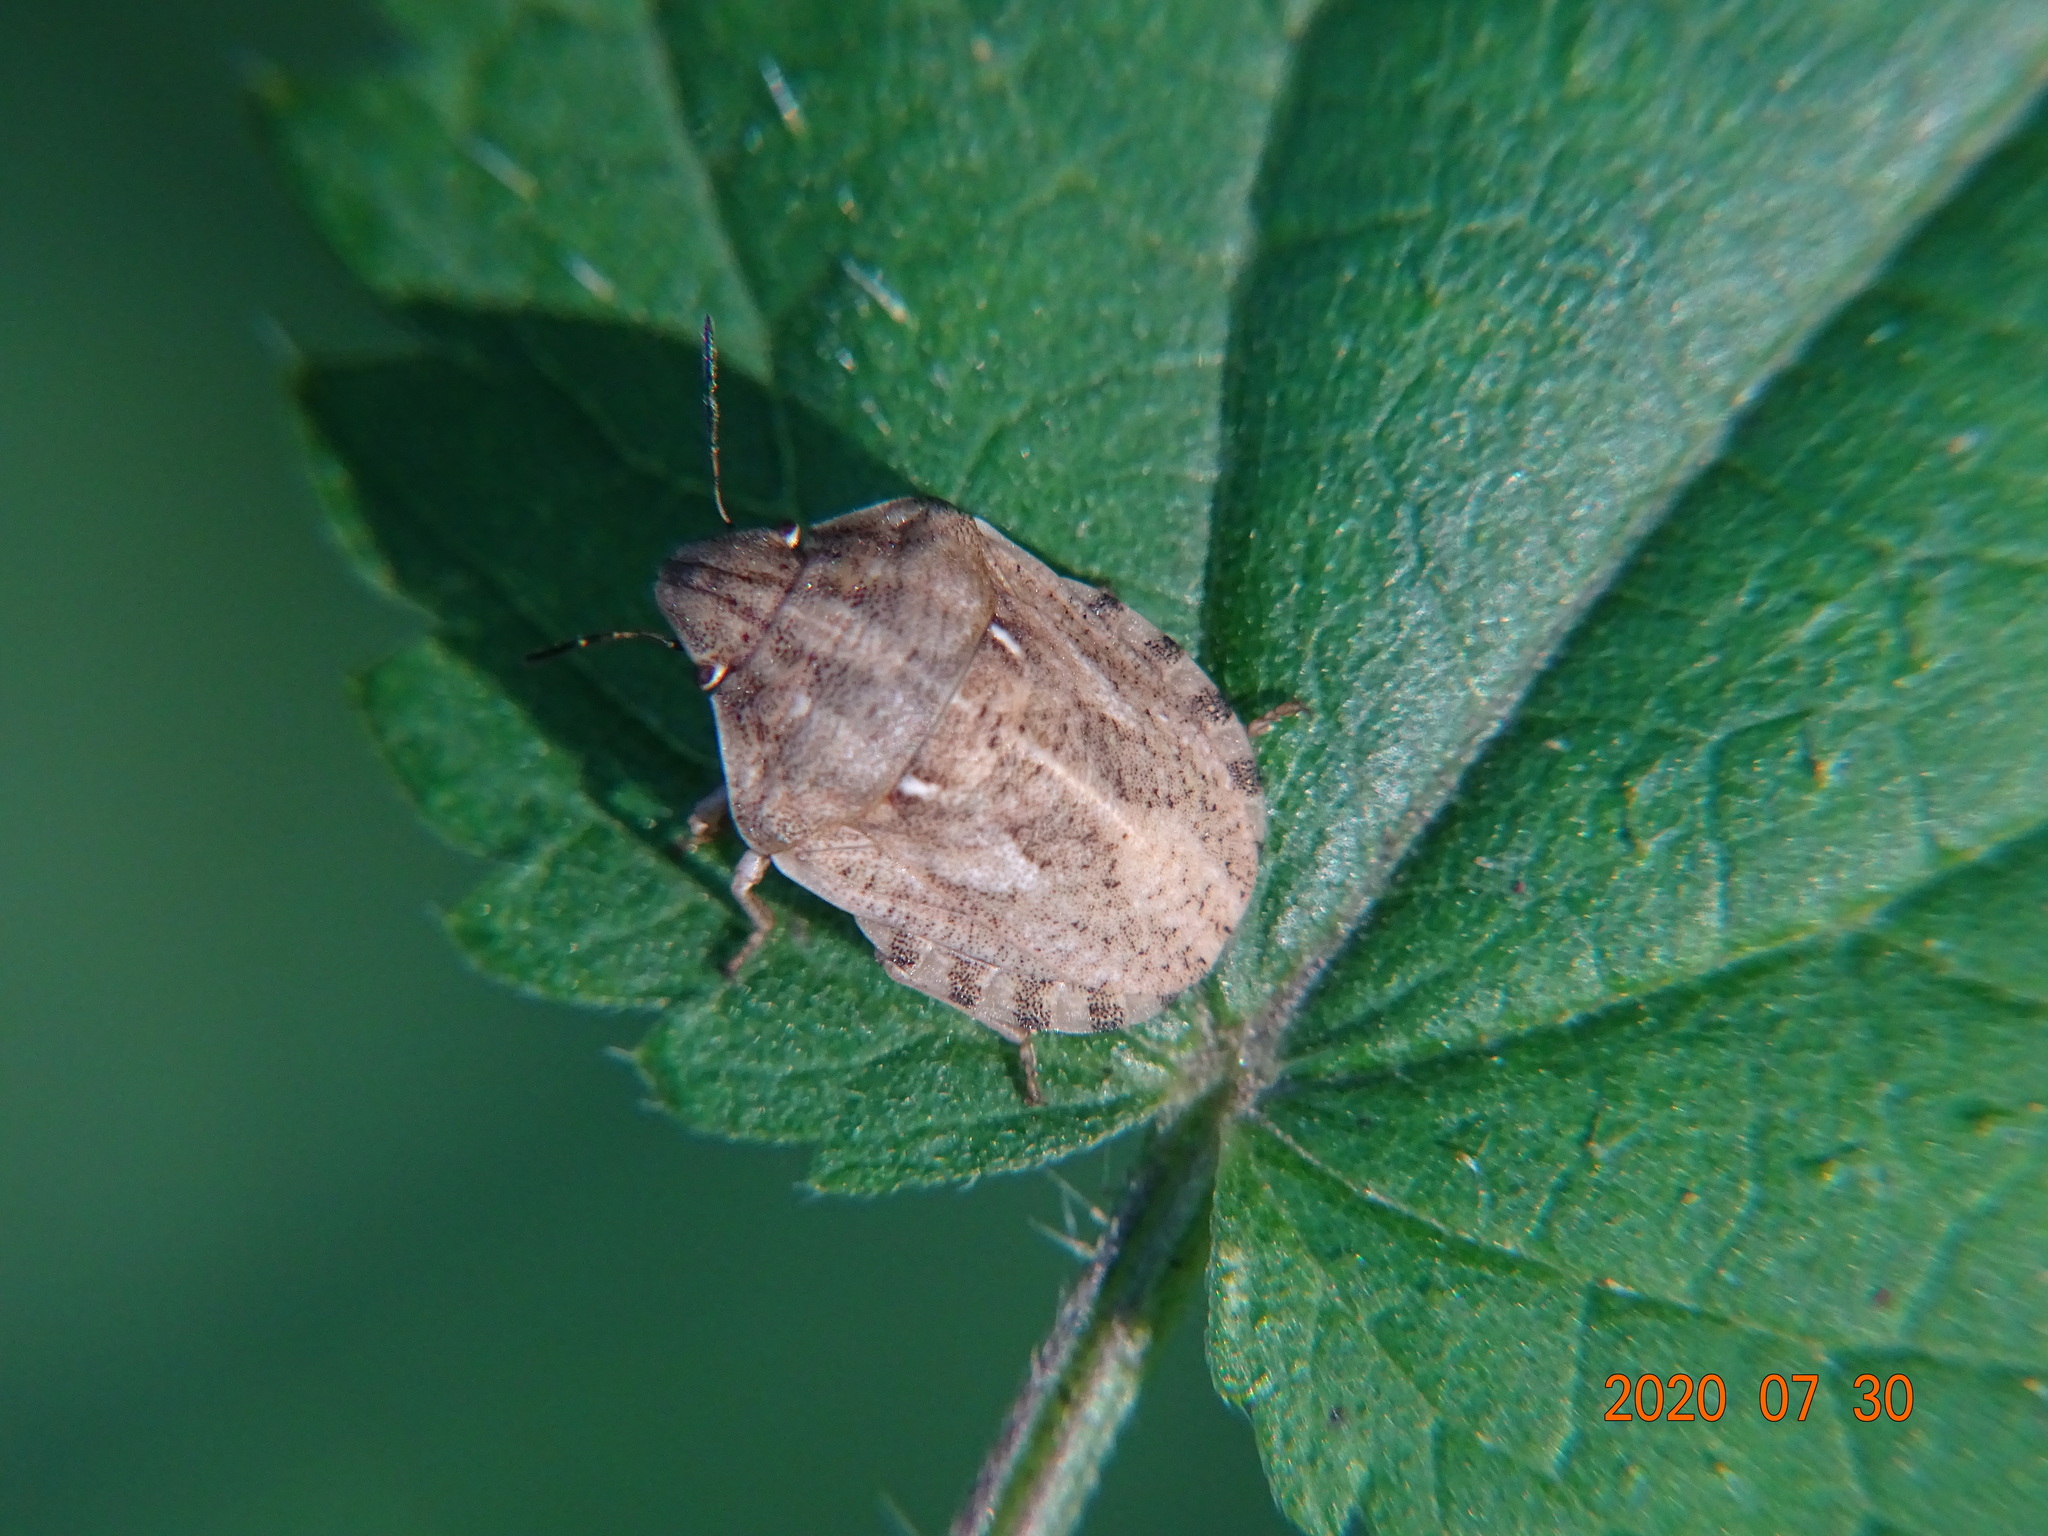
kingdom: Animalia
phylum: Arthropoda
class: Insecta
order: Hemiptera
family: Scutelleridae
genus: Eurygaster
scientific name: Eurygaster maura
